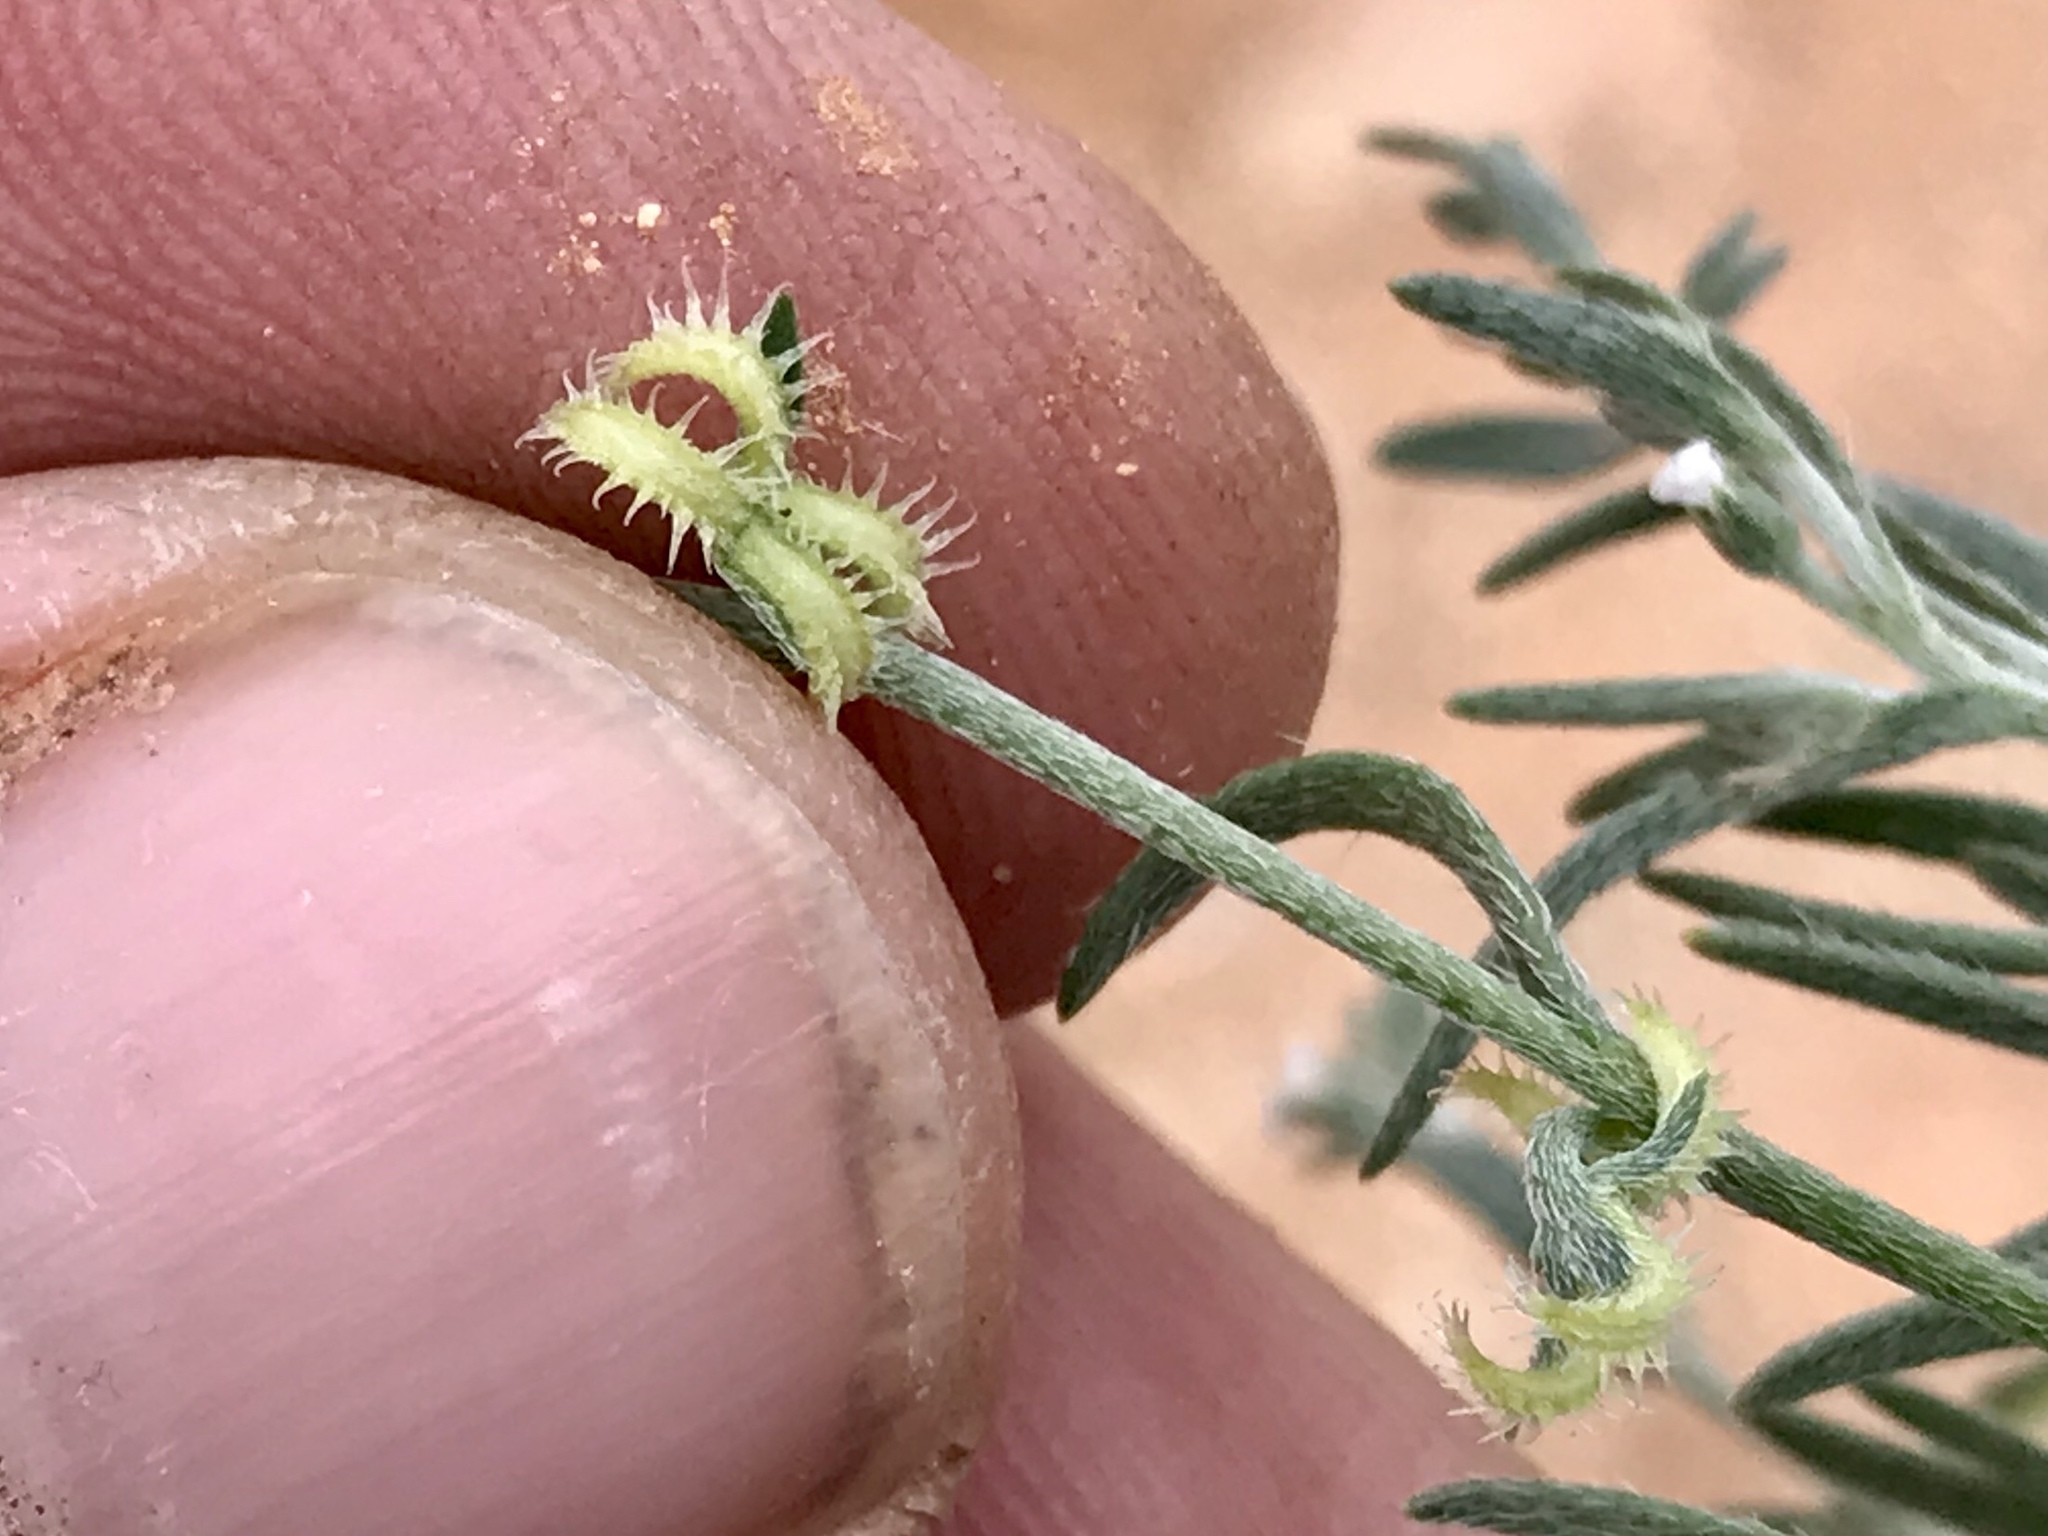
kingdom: Plantae
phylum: Tracheophyta
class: Magnoliopsida
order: Boraginales
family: Boraginaceae
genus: Pectocarya
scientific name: Pectocarya recurvata
